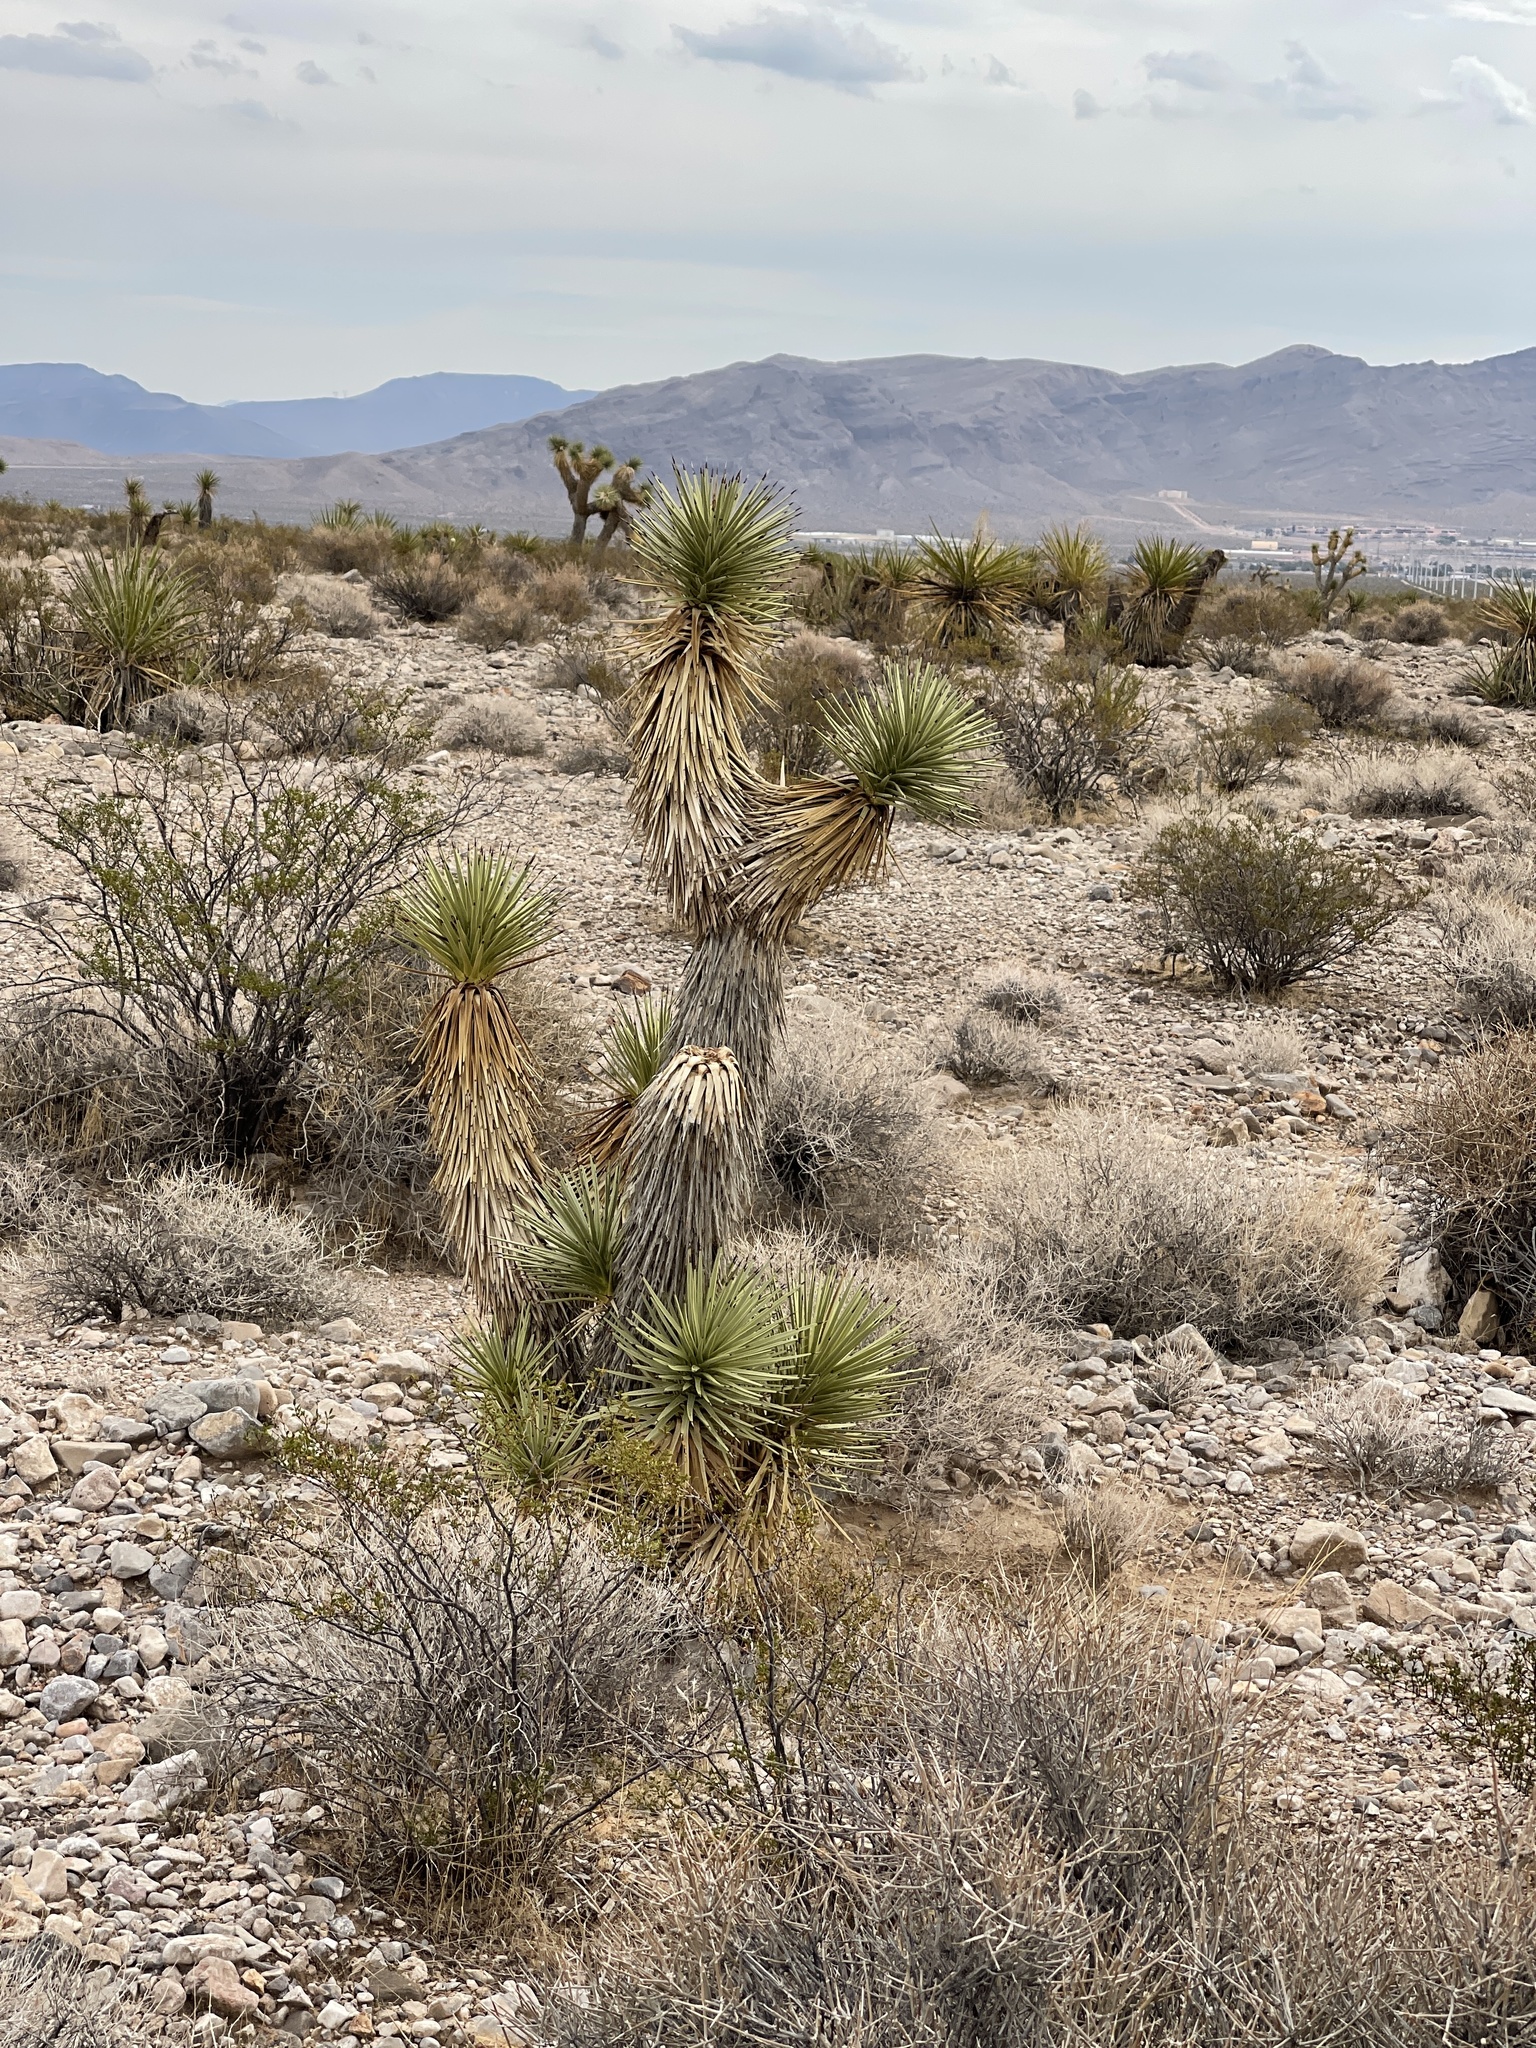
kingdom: Plantae
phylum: Tracheophyta
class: Liliopsida
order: Asparagales
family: Asparagaceae
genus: Yucca
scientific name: Yucca brevifolia
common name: Joshua tree
